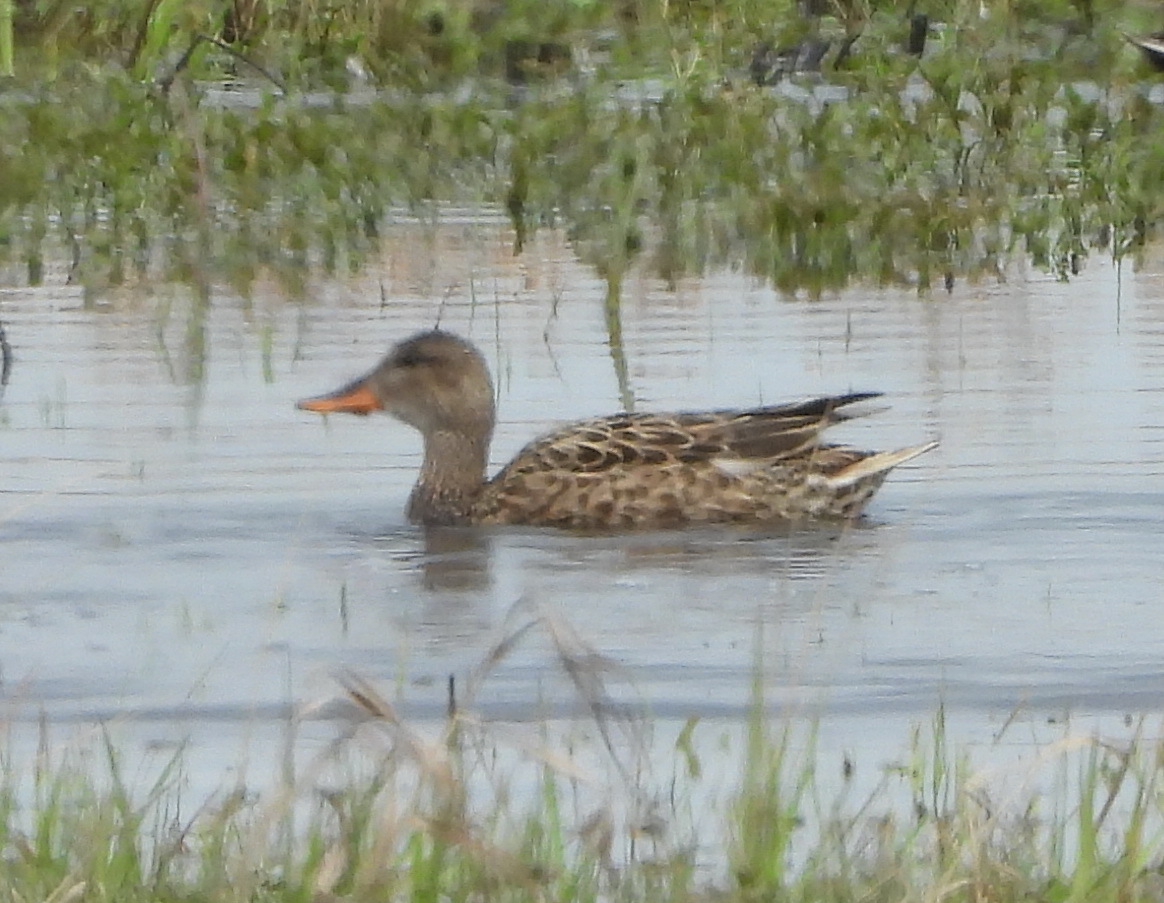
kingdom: Animalia
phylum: Chordata
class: Aves
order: Anseriformes
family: Anatidae
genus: Mareca
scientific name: Mareca strepera
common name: Gadwall
